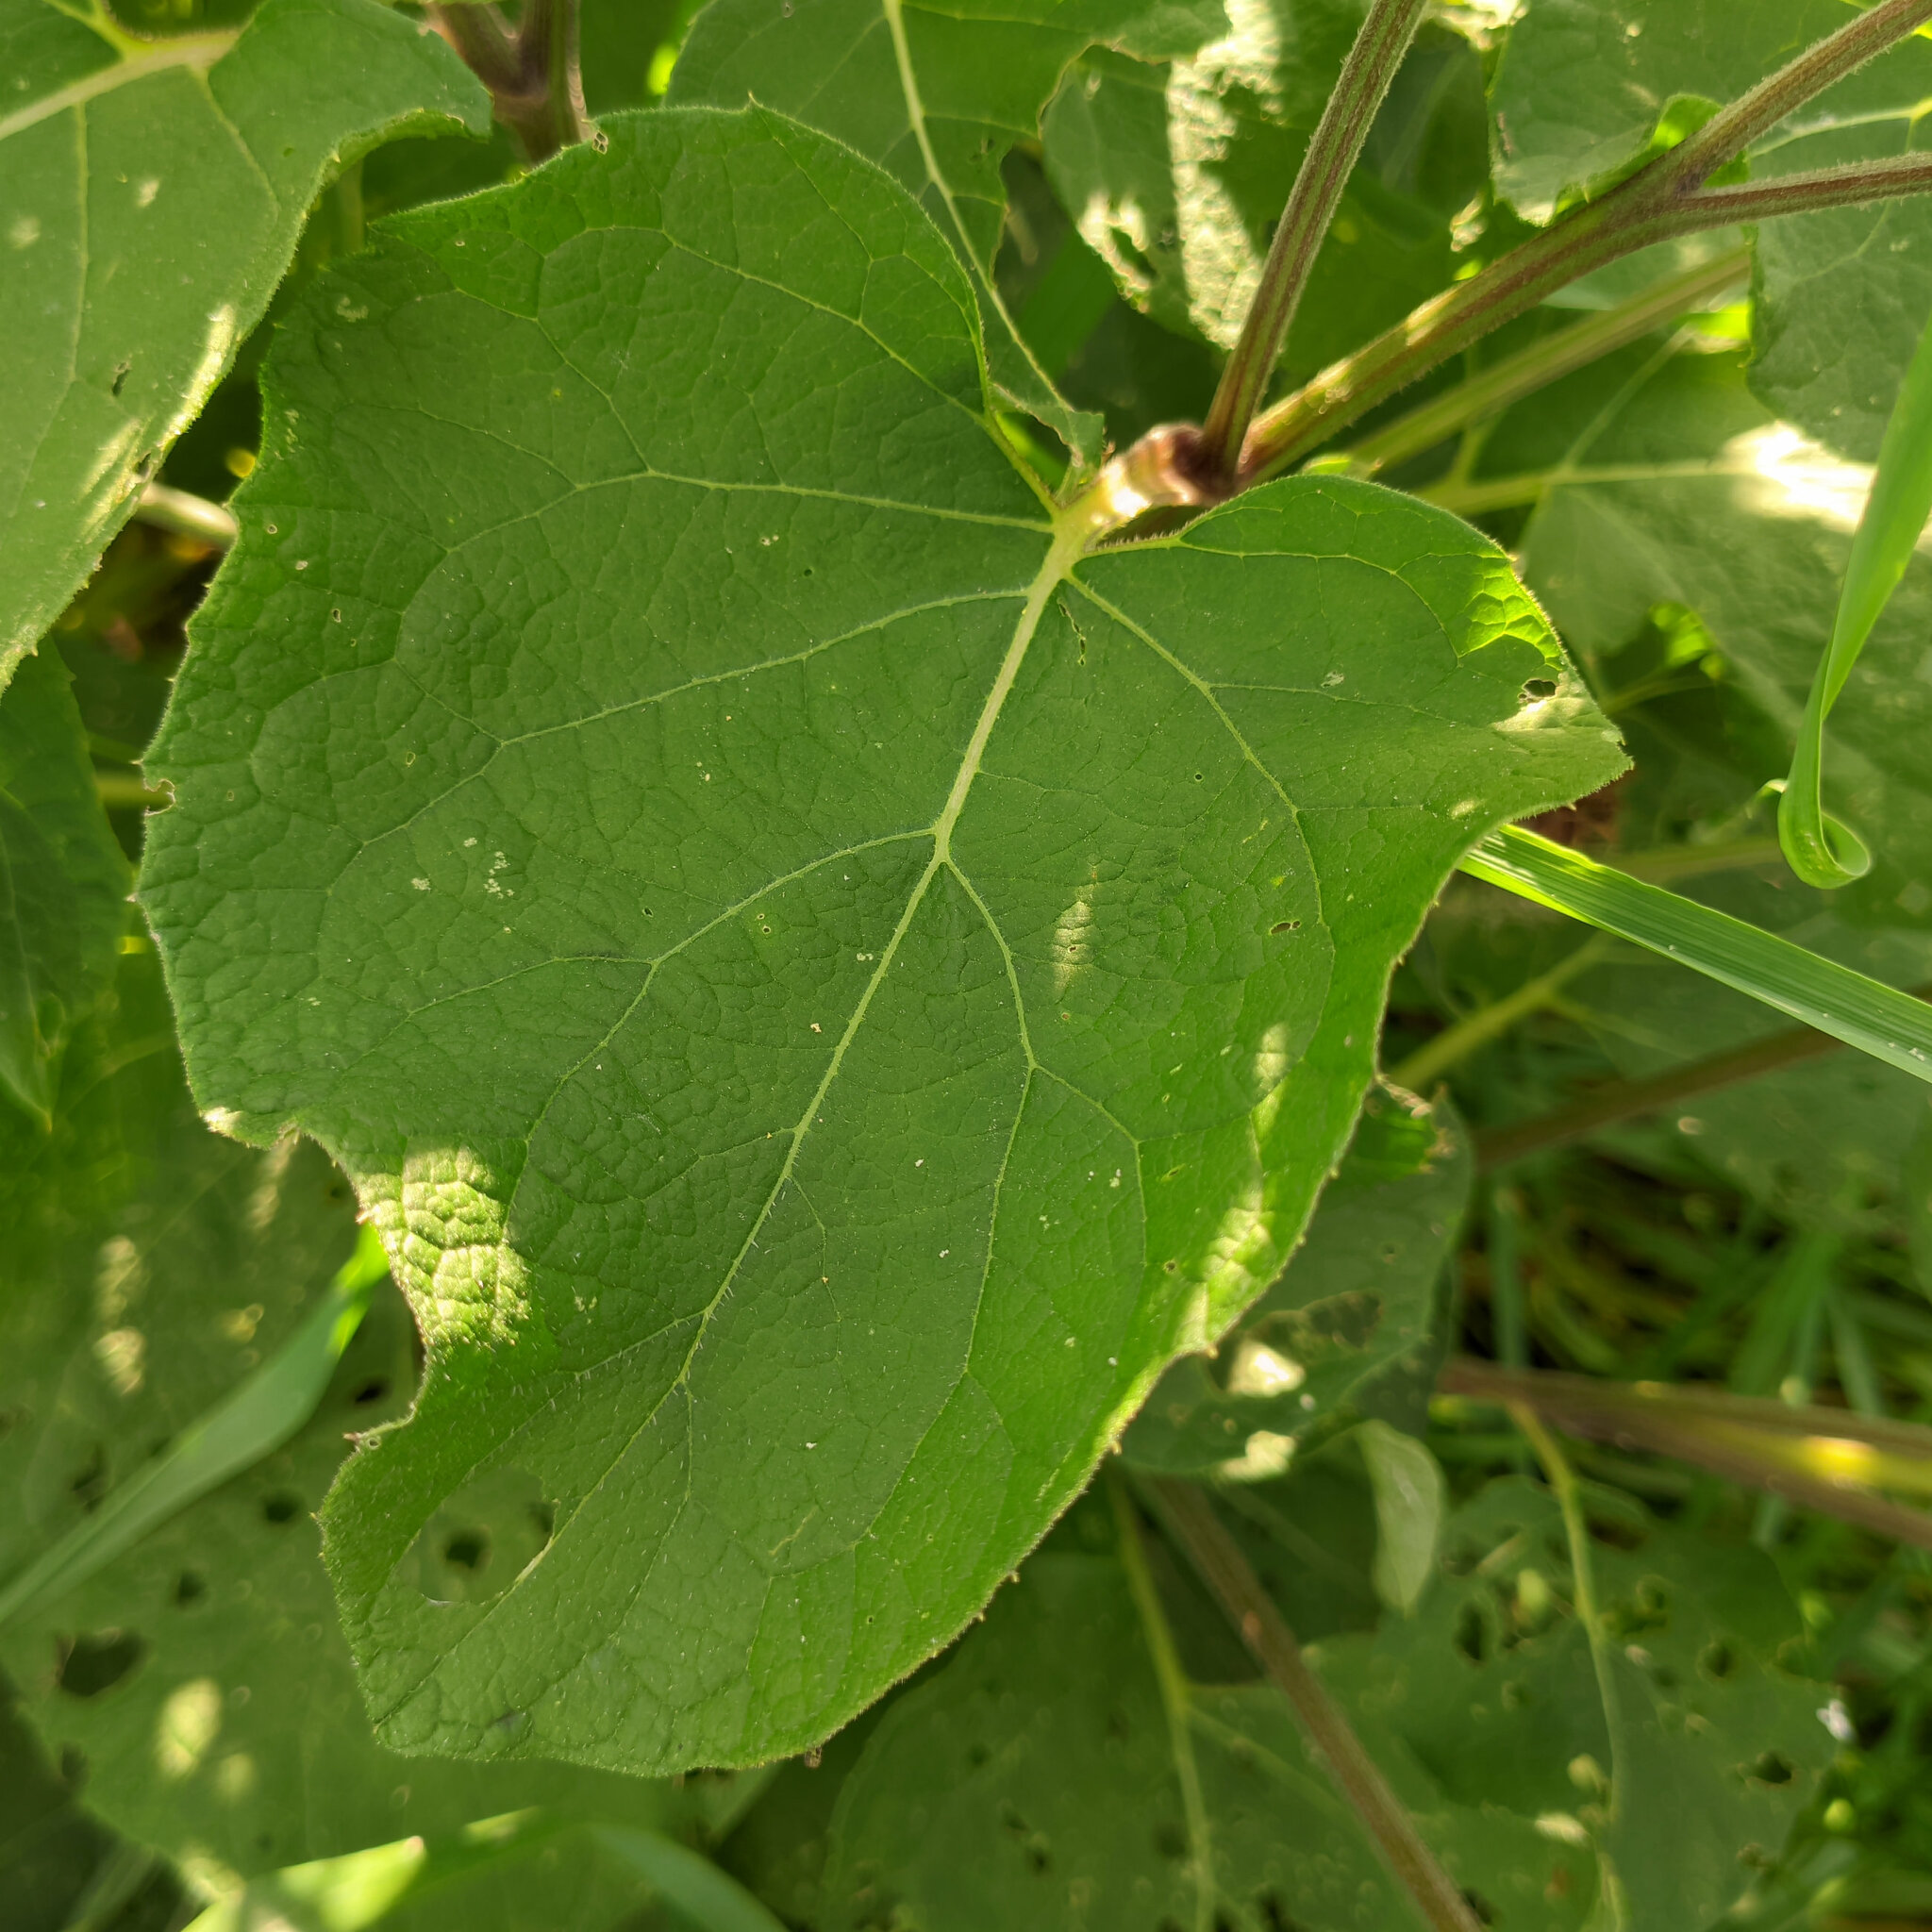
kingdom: Plantae
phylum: Tracheophyta
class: Magnoliopsida
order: Asterales
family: Asteraceae
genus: Arctium
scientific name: Arctium tomentosum
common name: Woolly burdock
